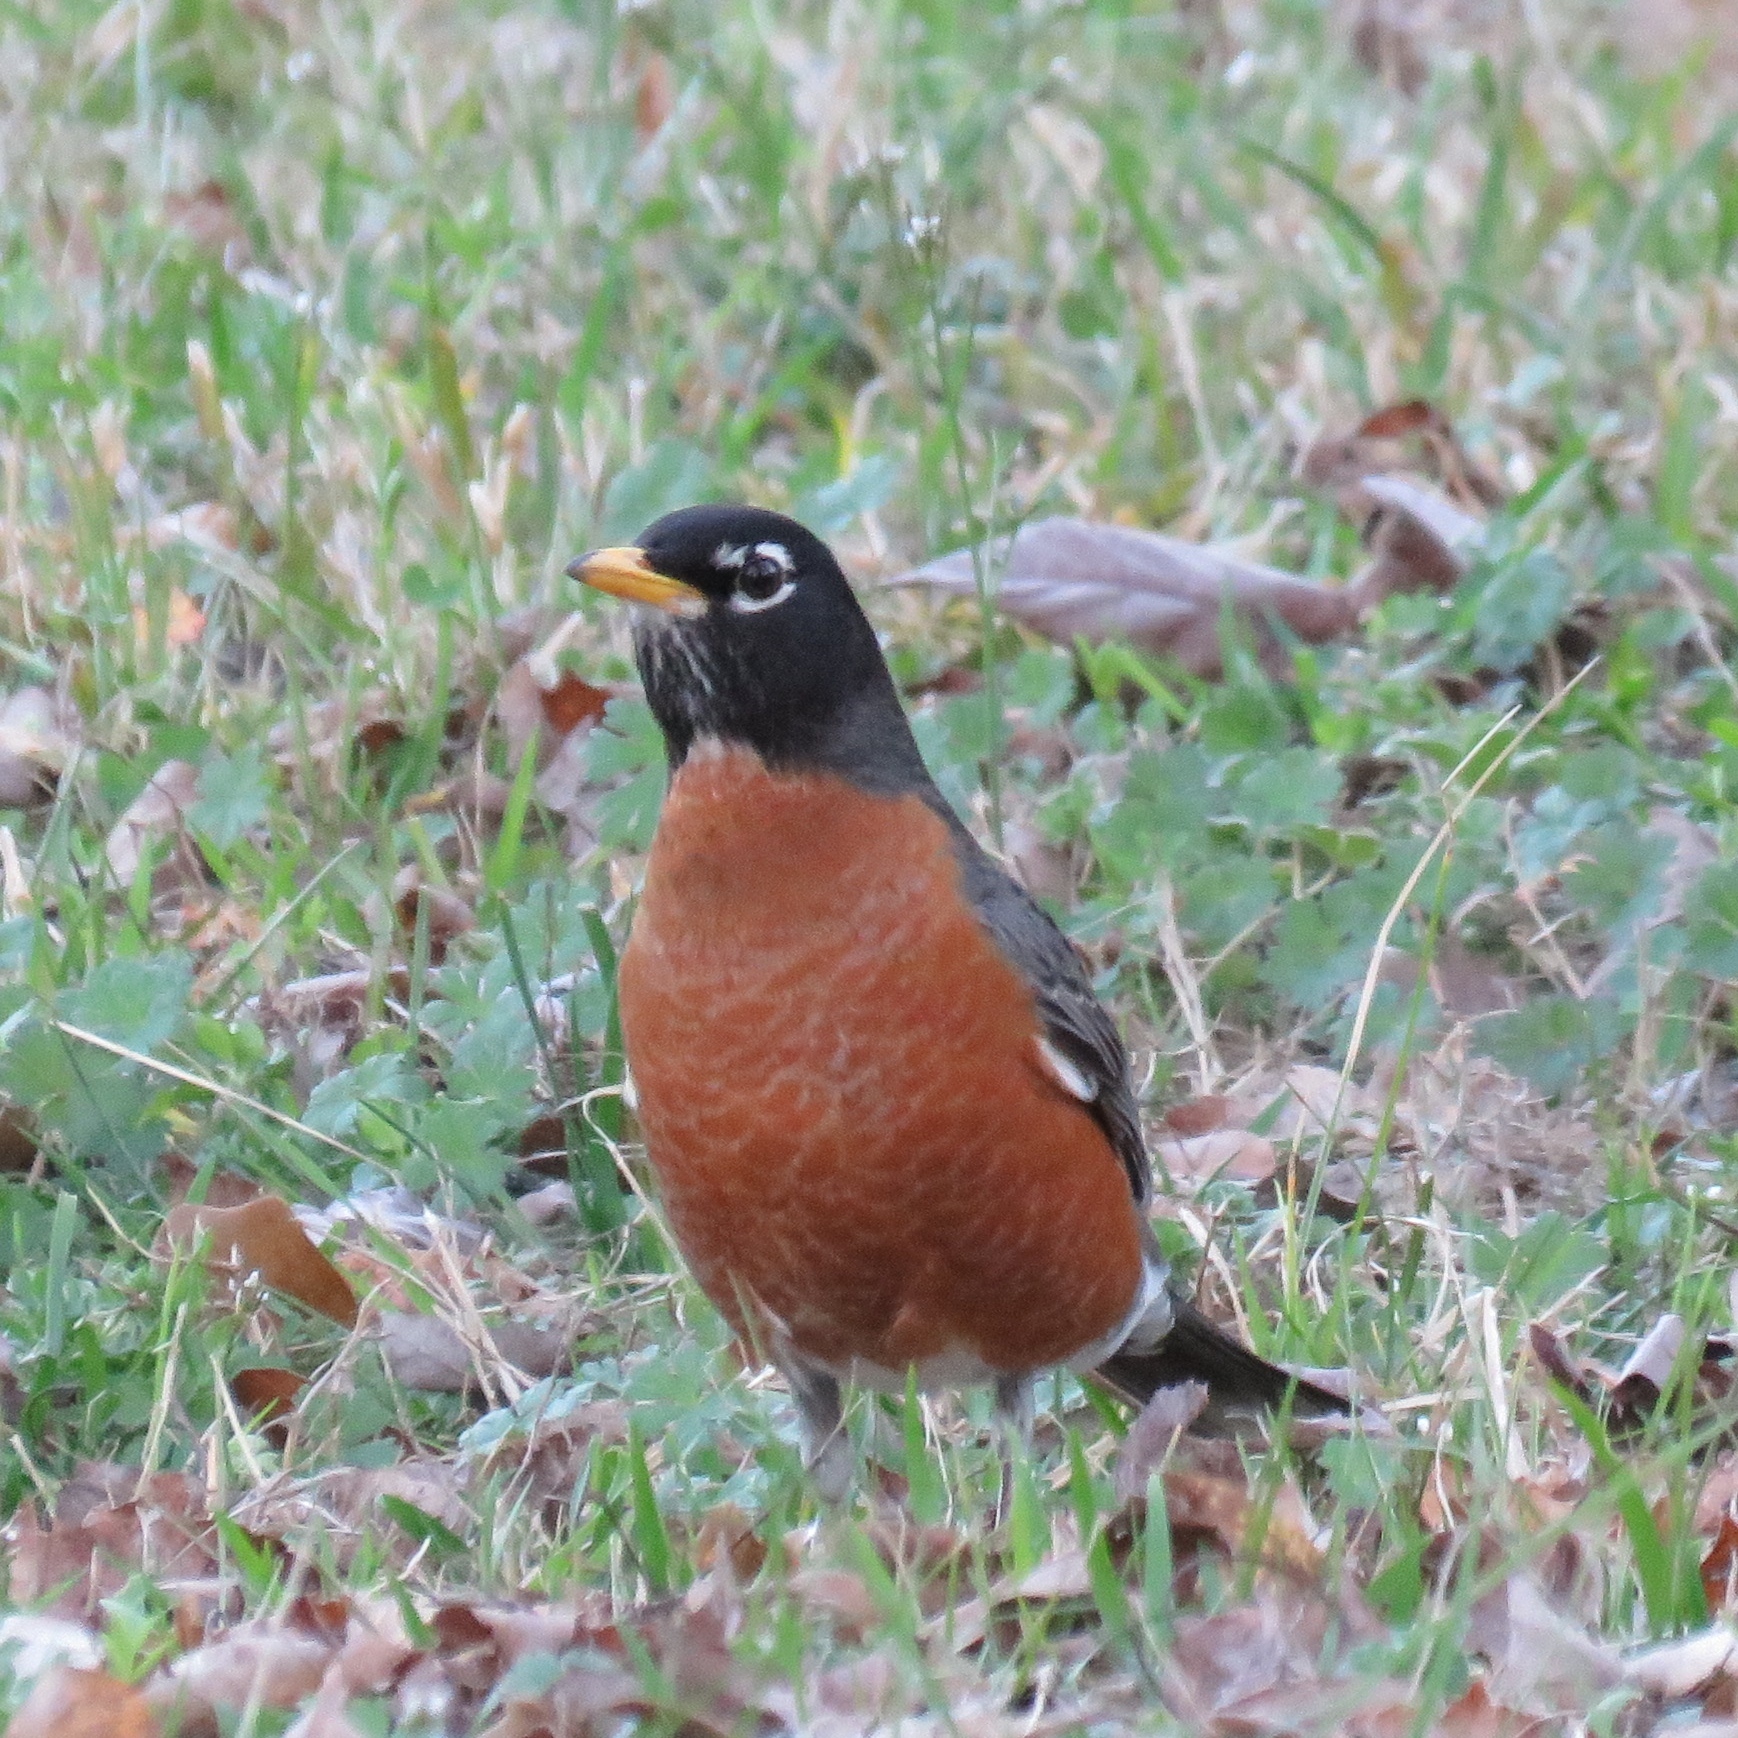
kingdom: Animalia
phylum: Chordata
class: Aves
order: Passeriformes
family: Turdidae
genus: Turdus
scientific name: Turdus migratorius
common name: American robin
